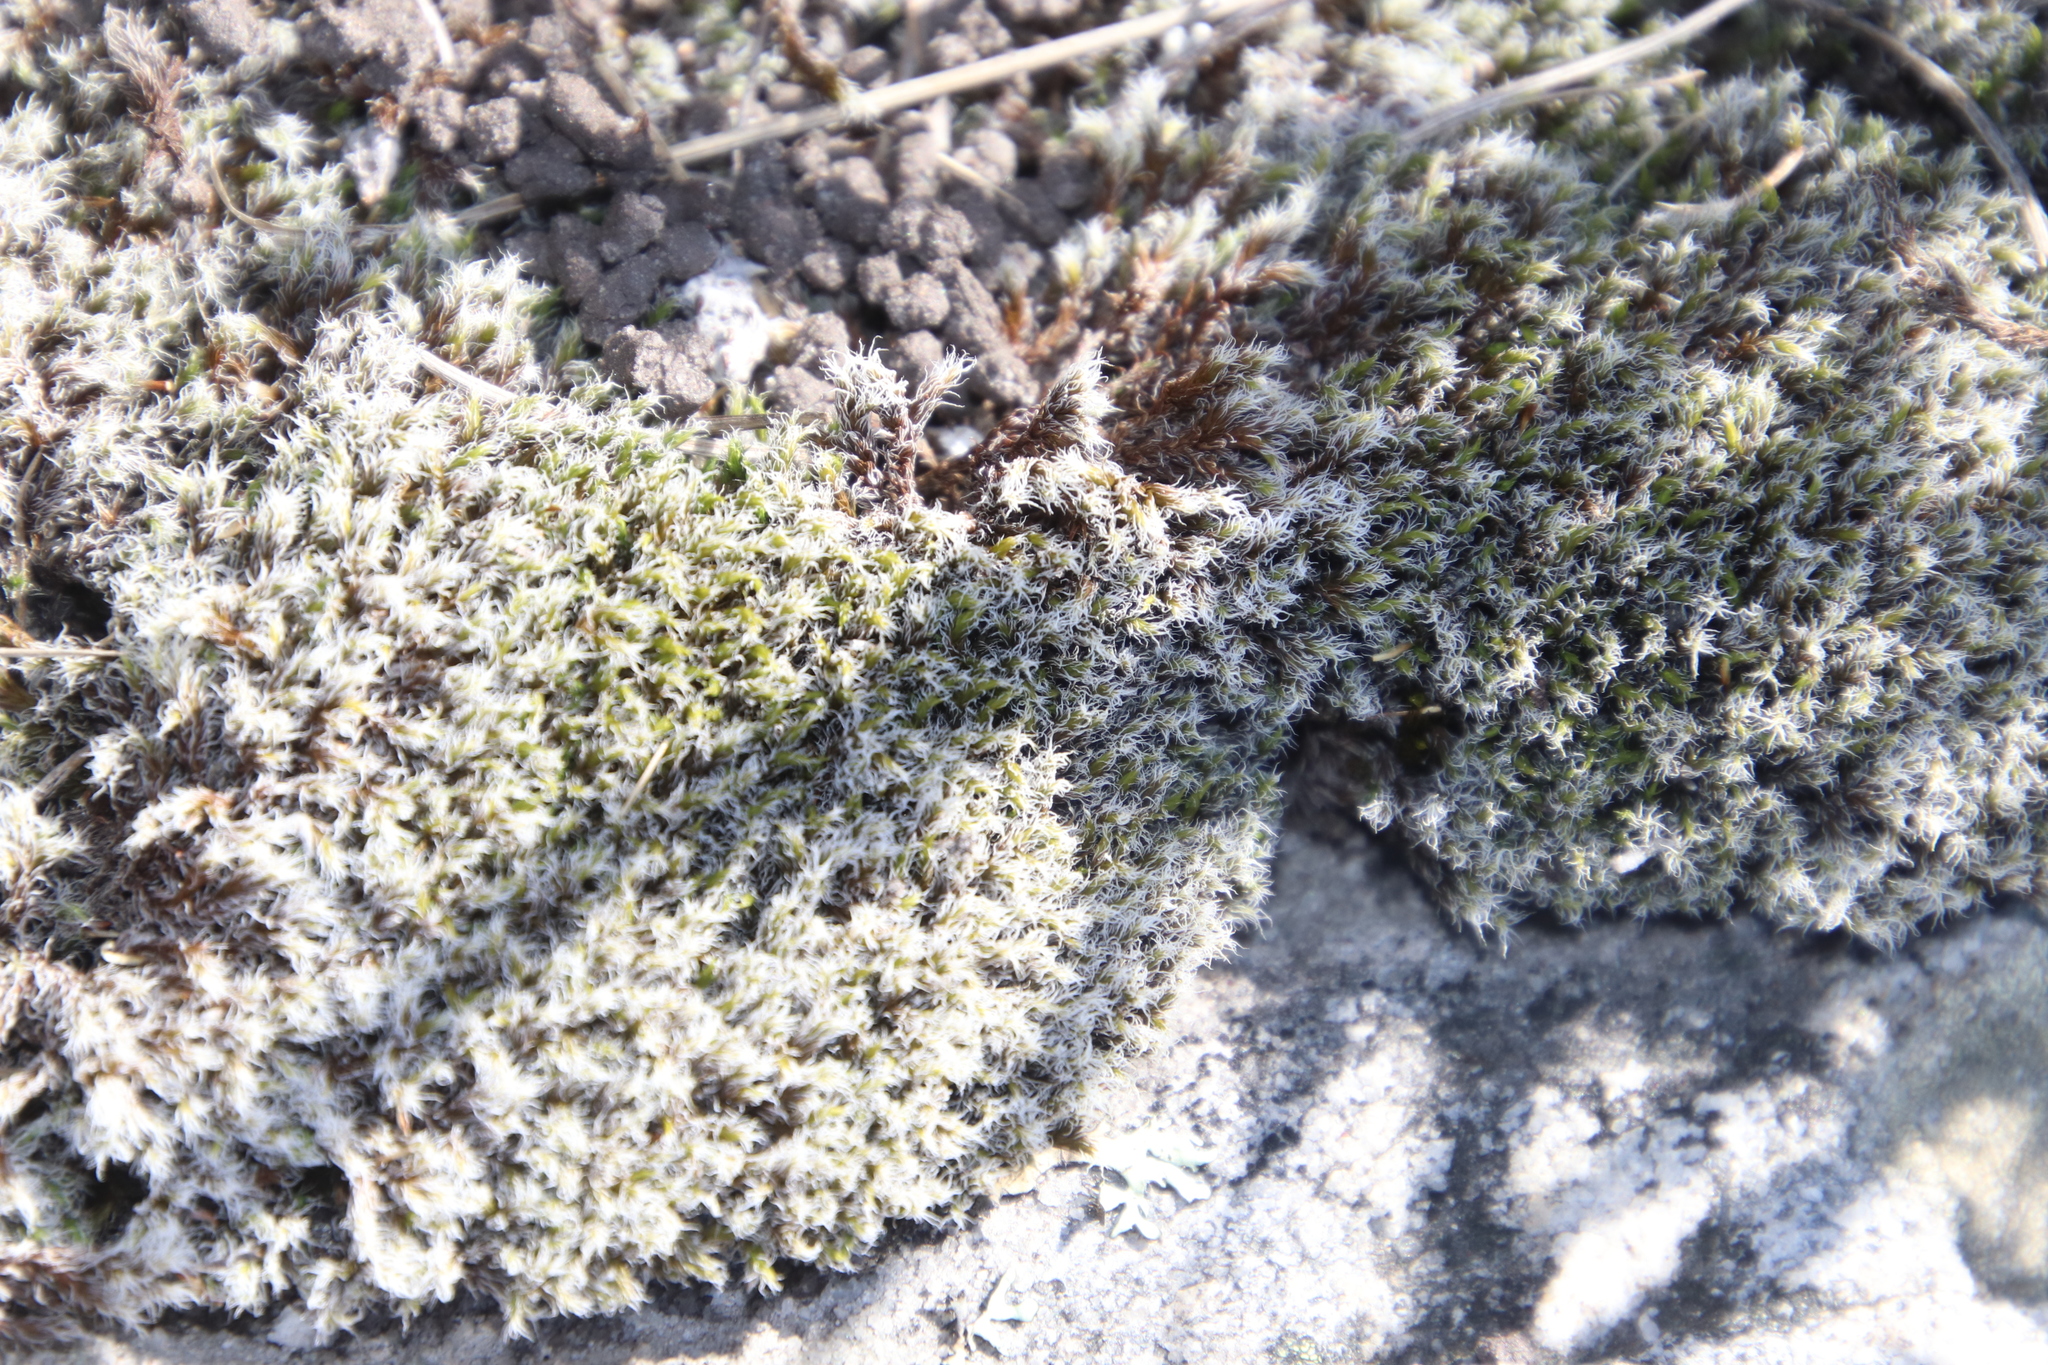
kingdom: Plantae
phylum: Bryophyta
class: Bryopsida
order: Grimmiales
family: Grimmiaceae
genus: Racomitrium
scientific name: Racomitrium lanuginosum
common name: Hoary rock moss
